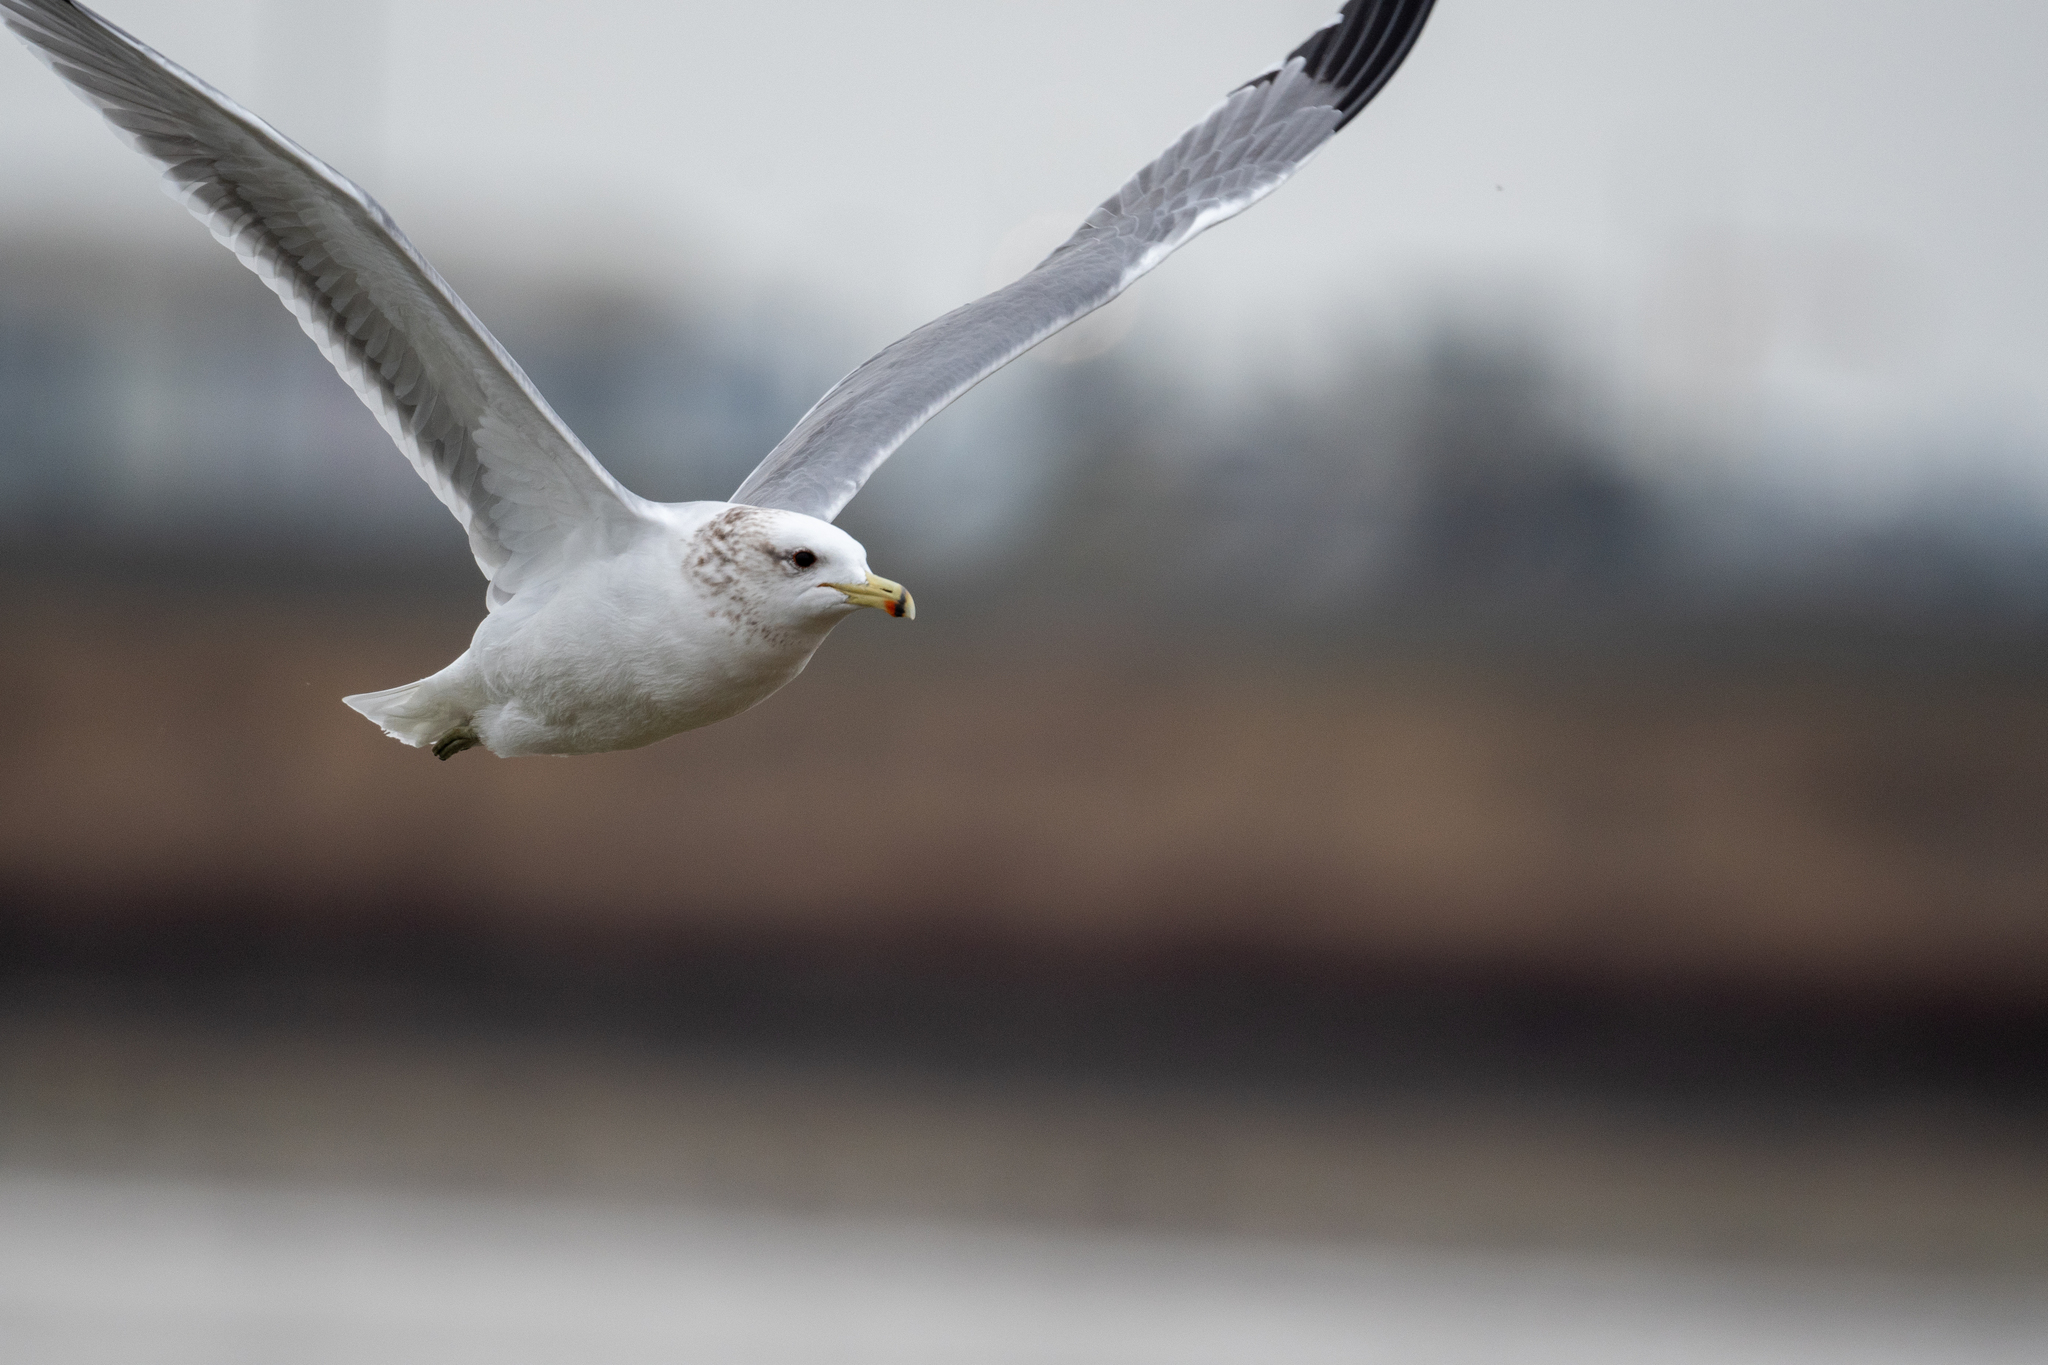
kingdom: Animalia
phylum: Chordata
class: Aves
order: Charadriiformes
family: Laridae
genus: Larus
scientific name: Larus californicus
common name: California gull
